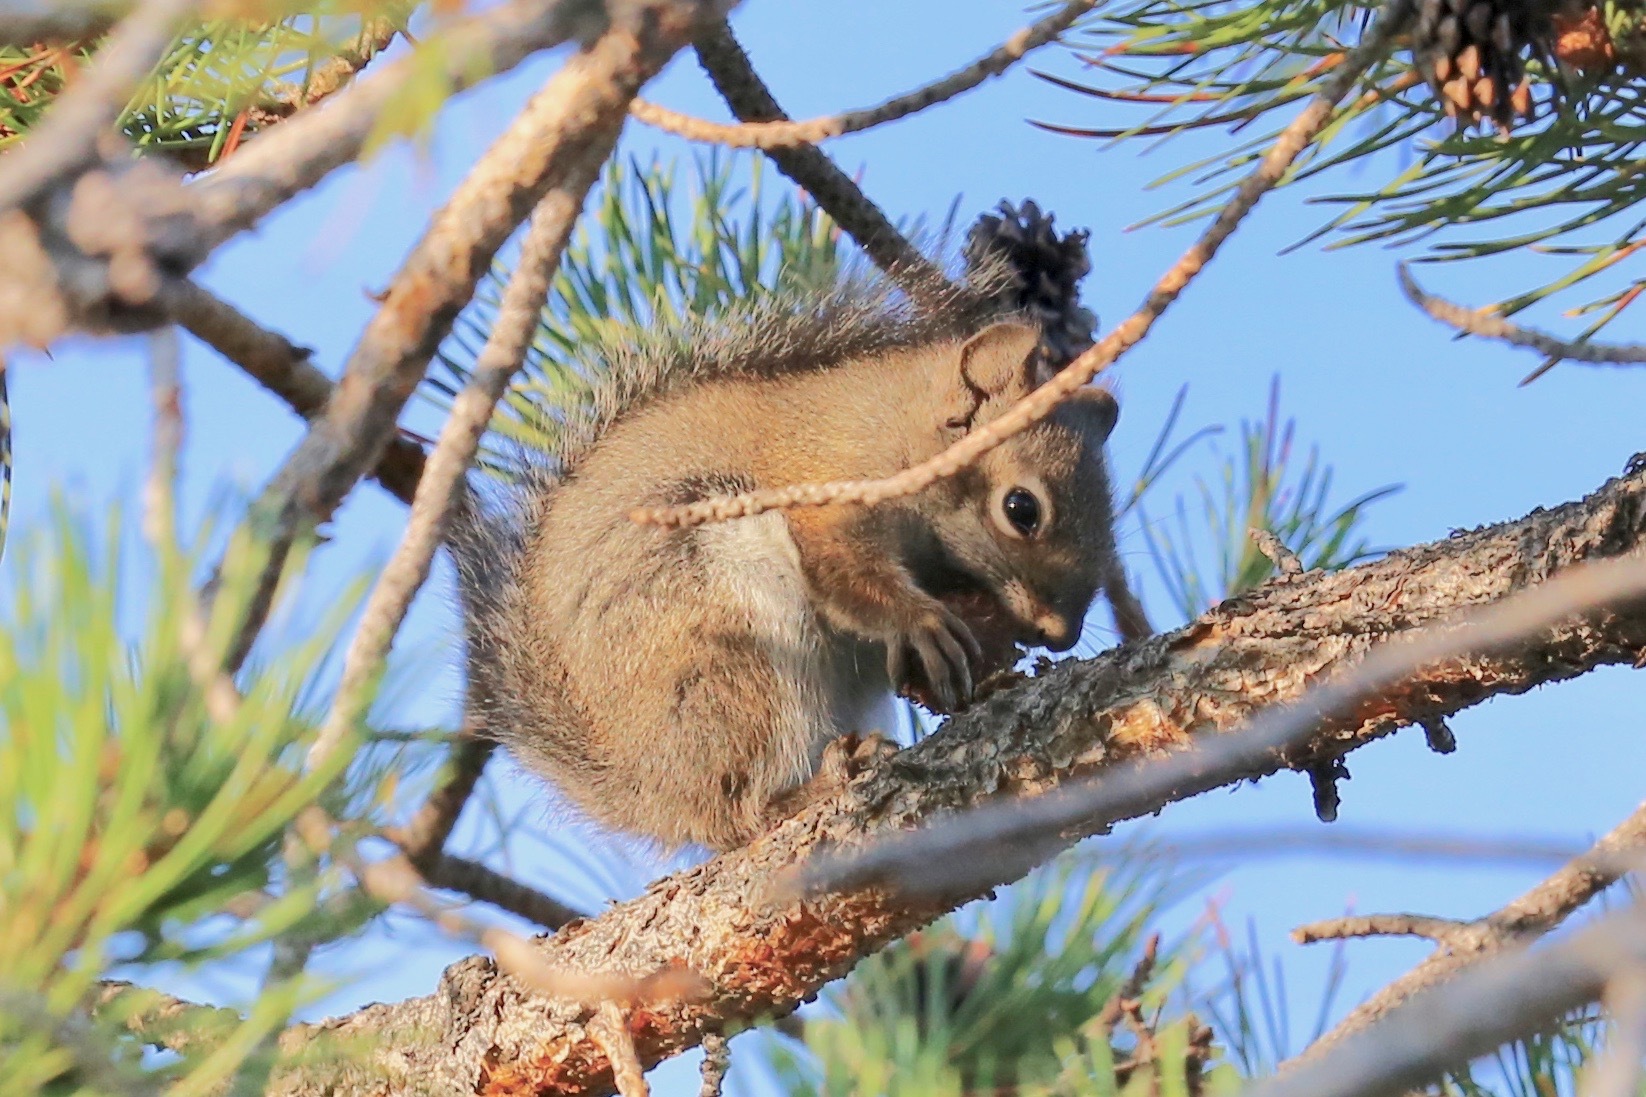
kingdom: Animalia
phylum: Chordata
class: Mammalia
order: Rodentia
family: Sciuridae
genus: Tamiasciurus
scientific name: Tamiasciurus hudsonicus
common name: Red squirrel
